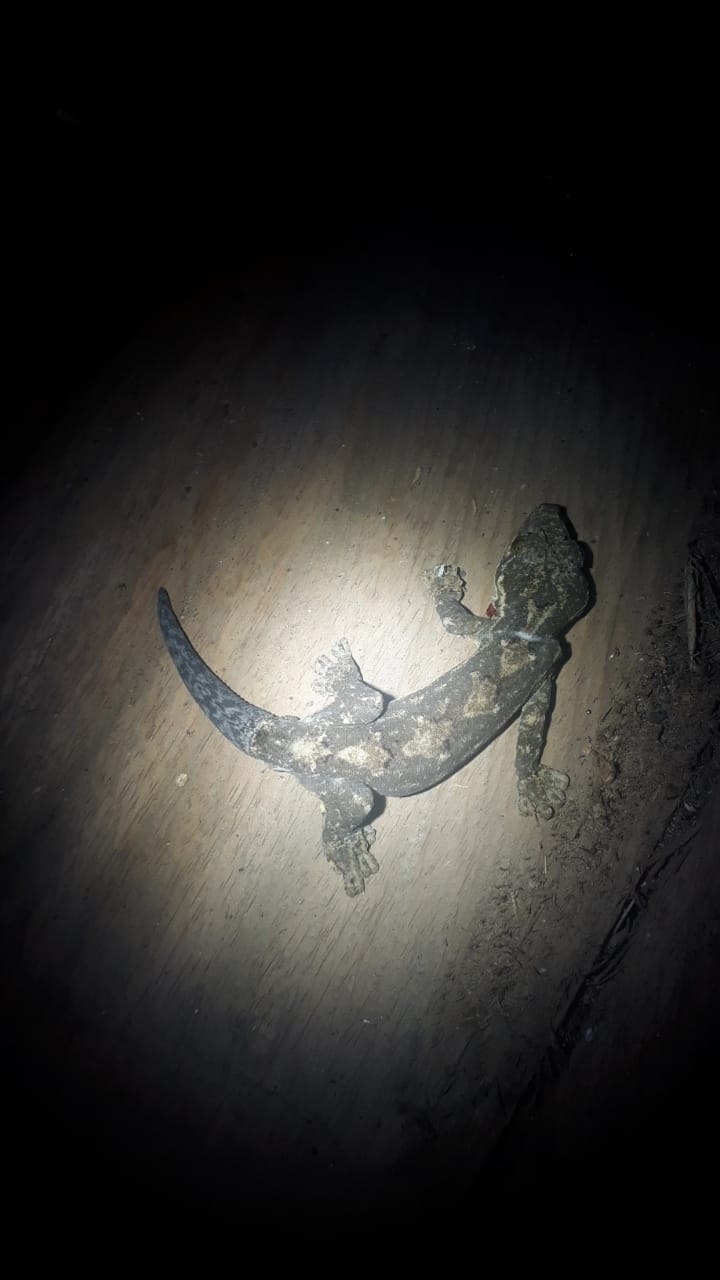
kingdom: Animalia
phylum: Chordata
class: Squamata
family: Phyllodactylidae
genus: Thecadactylus
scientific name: Thecadactylus rapicauda
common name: Turnip-tailed gecko
